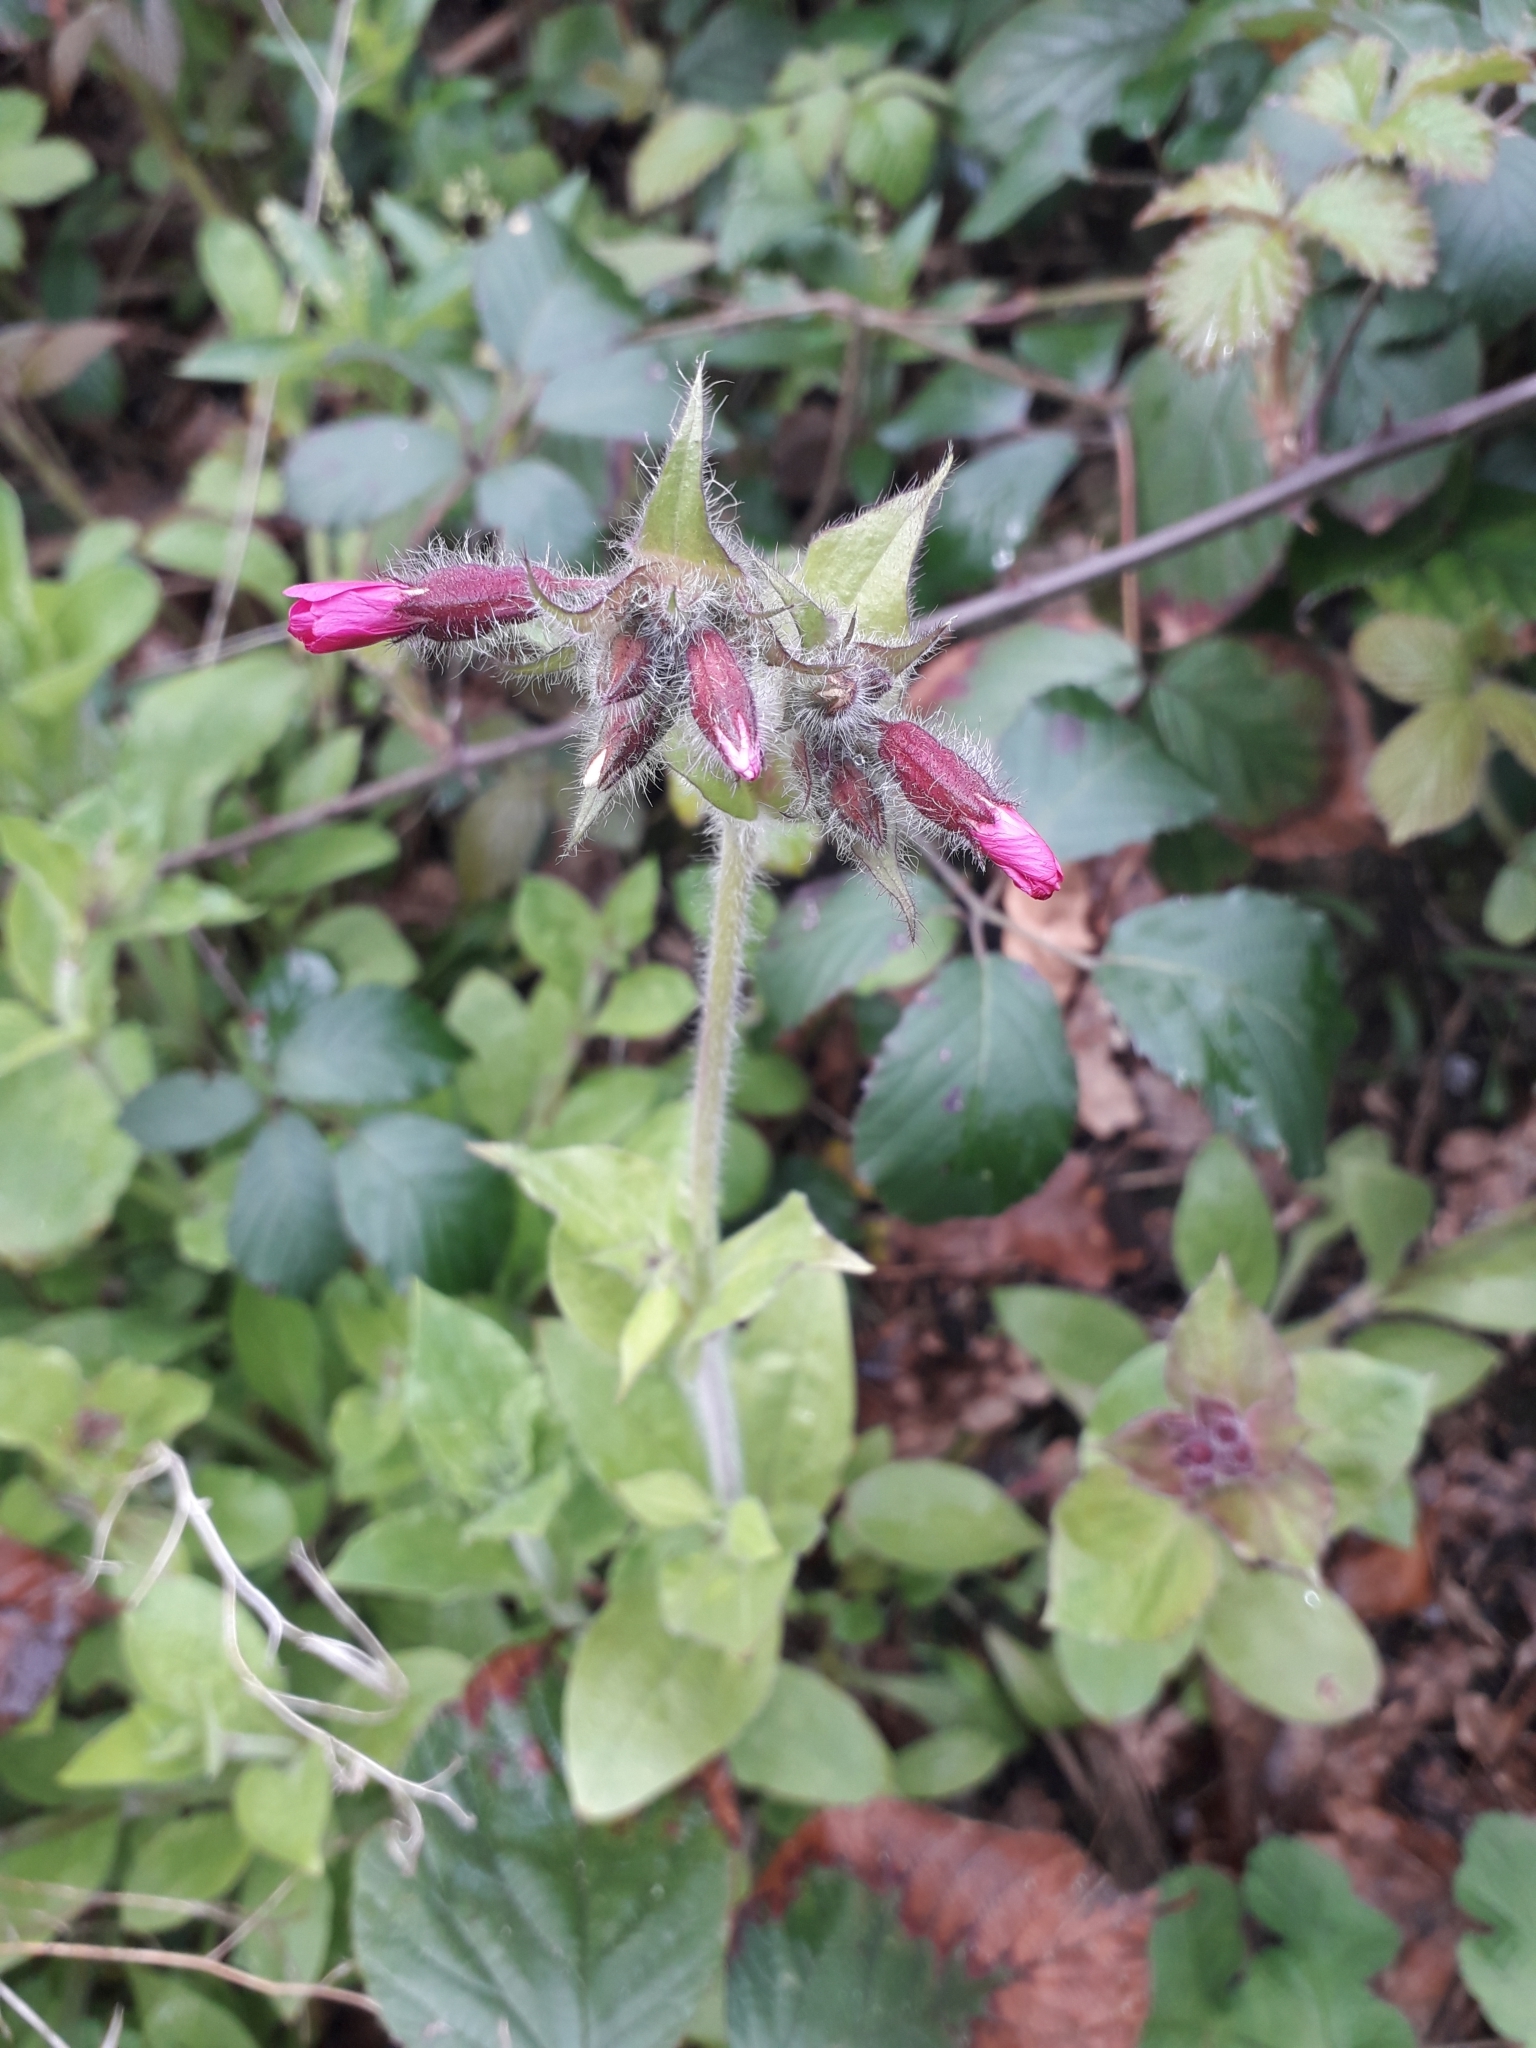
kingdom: Plantae
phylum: Tracheophyta
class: Magnoliopsida
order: Caryophyllales
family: Caryophyllaceae
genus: Silene
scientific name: Silene dioica
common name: Red campion
